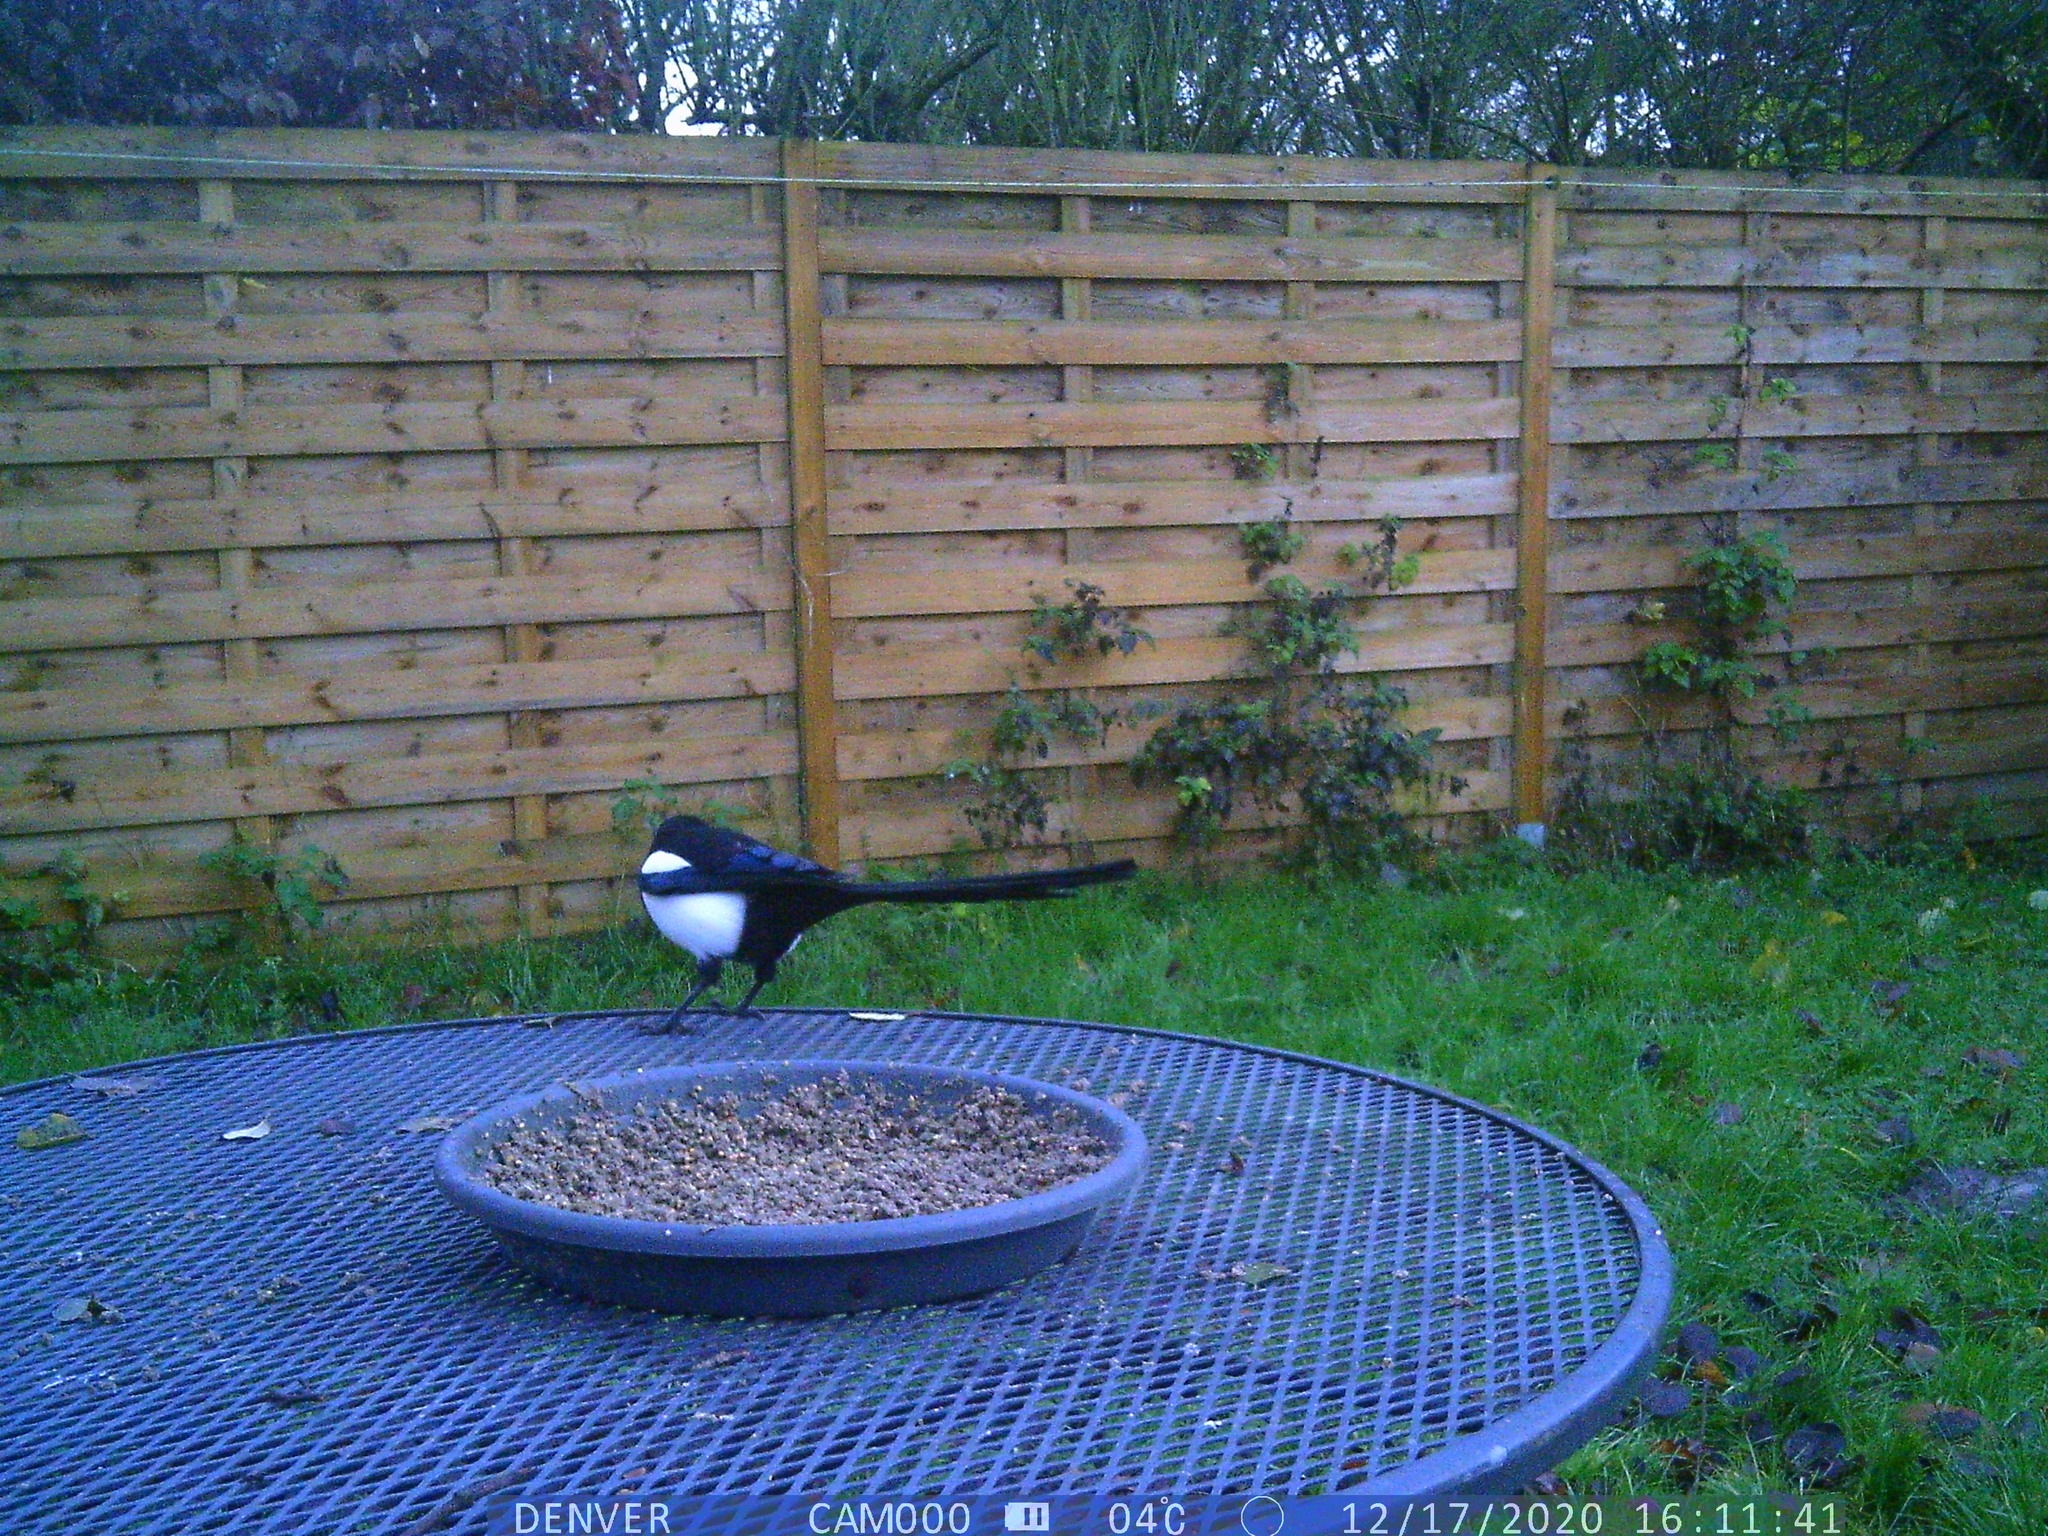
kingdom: Animalia
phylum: Chordata
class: Aves
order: Passeriformes
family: Corvidae
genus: Pica
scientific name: Pica pica
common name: Eurasian magpie
